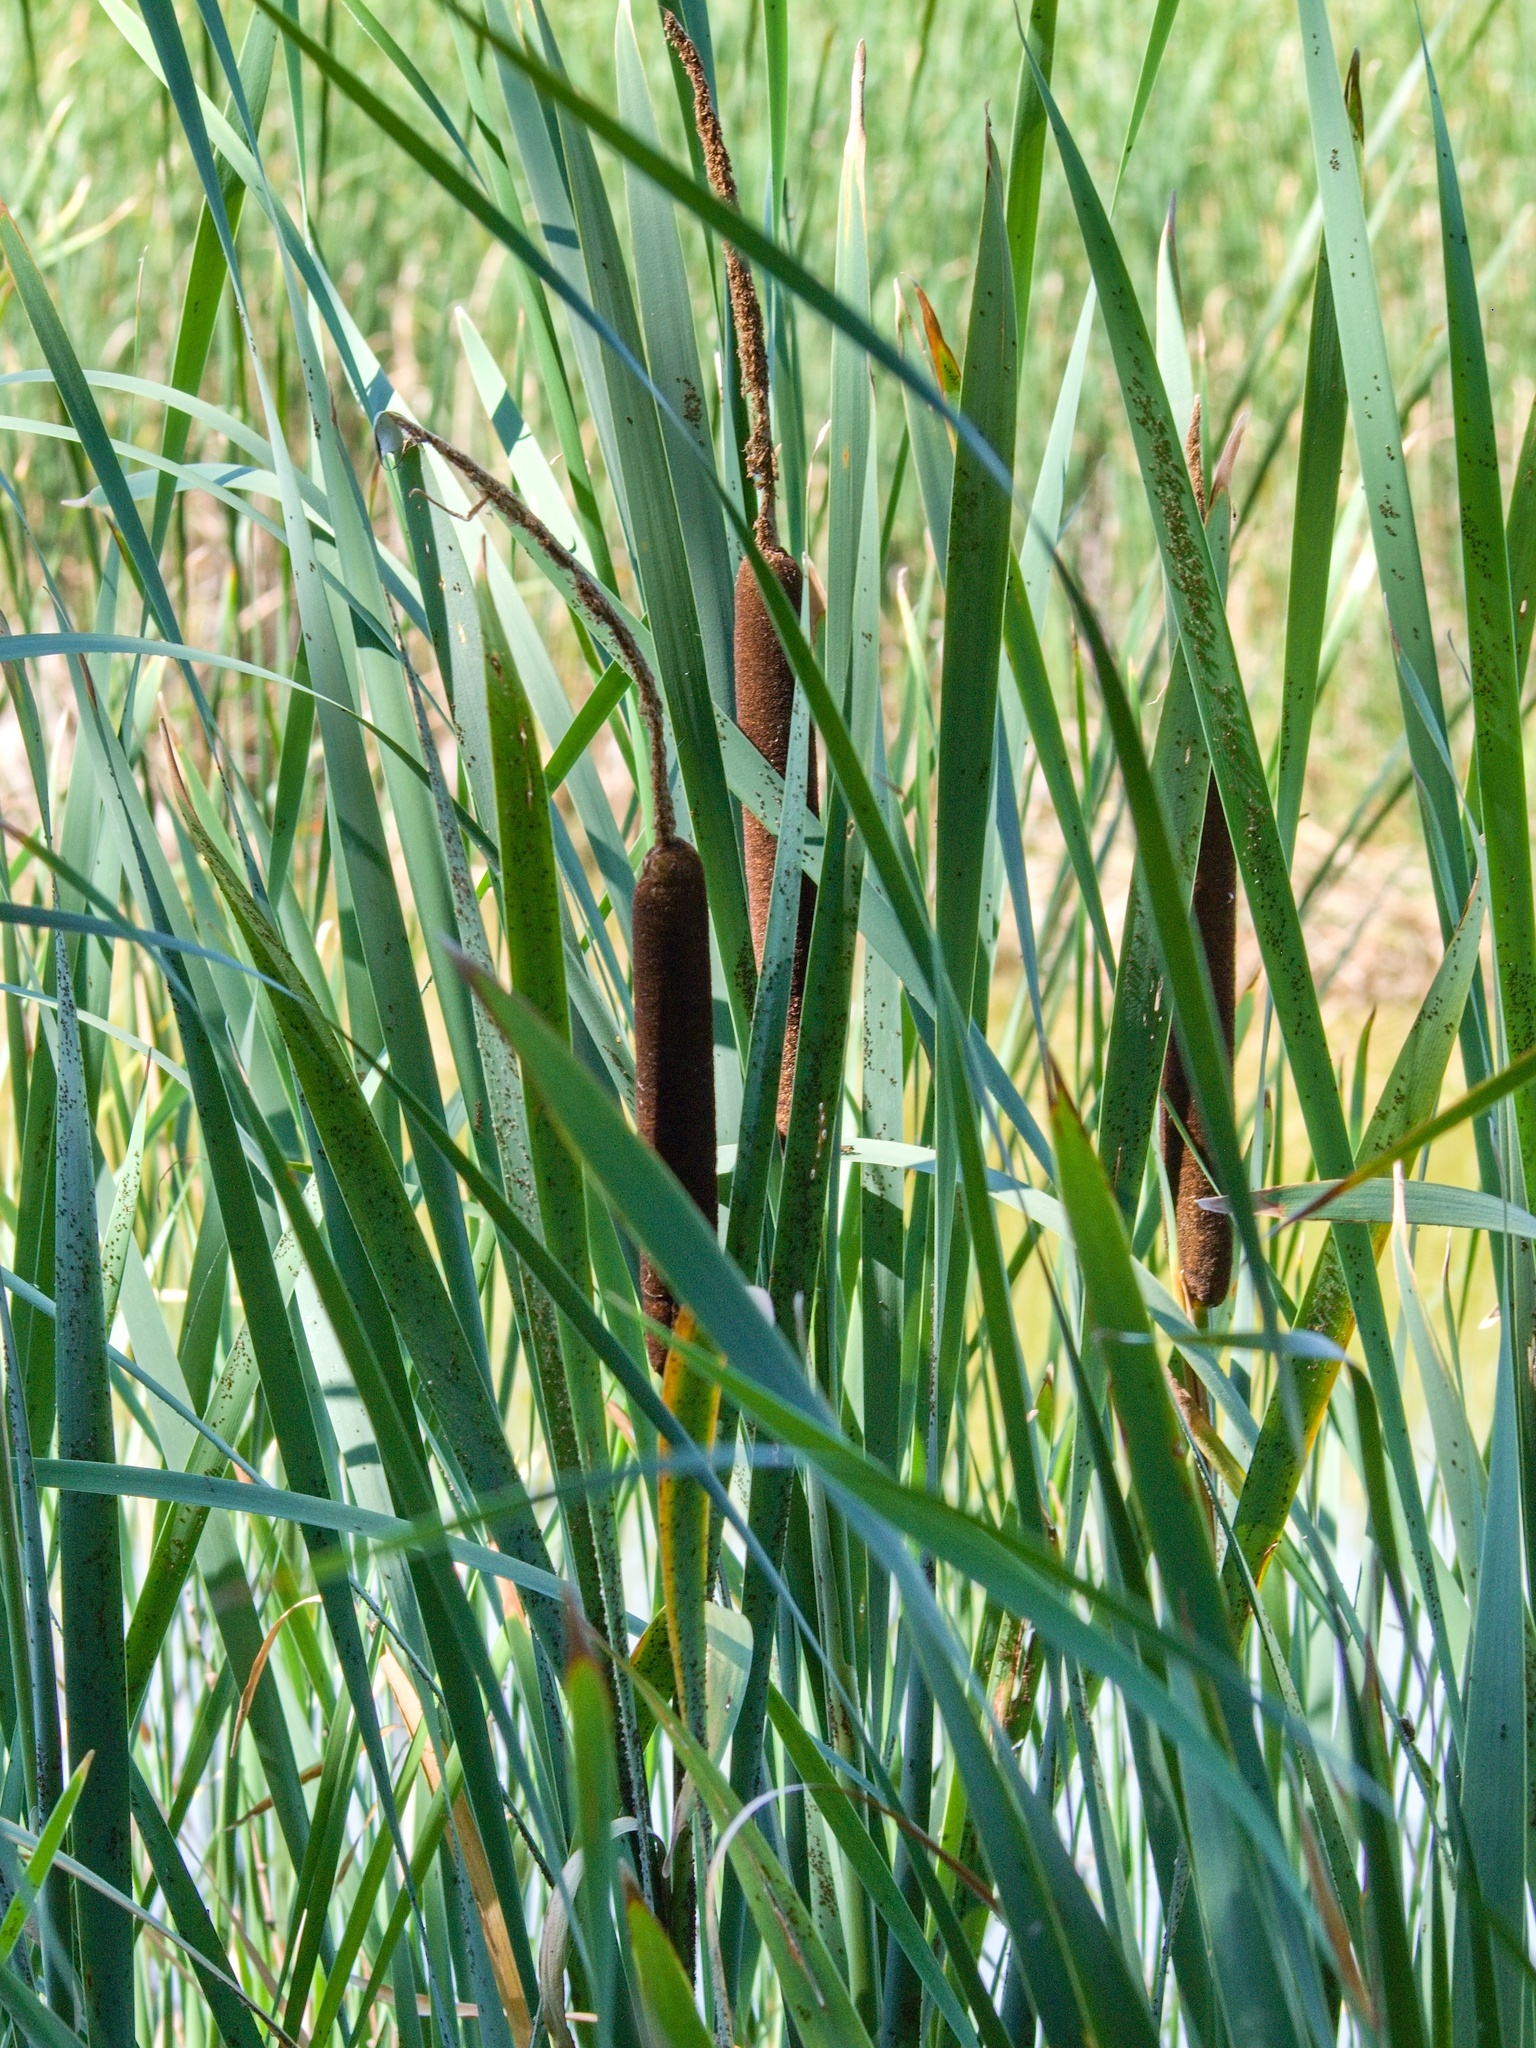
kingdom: Plantae
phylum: Tracheophyta
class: Liliopsida
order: Poales
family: Typhaceae
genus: Typha
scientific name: Typha latifolia
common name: Broadleaf cattail
